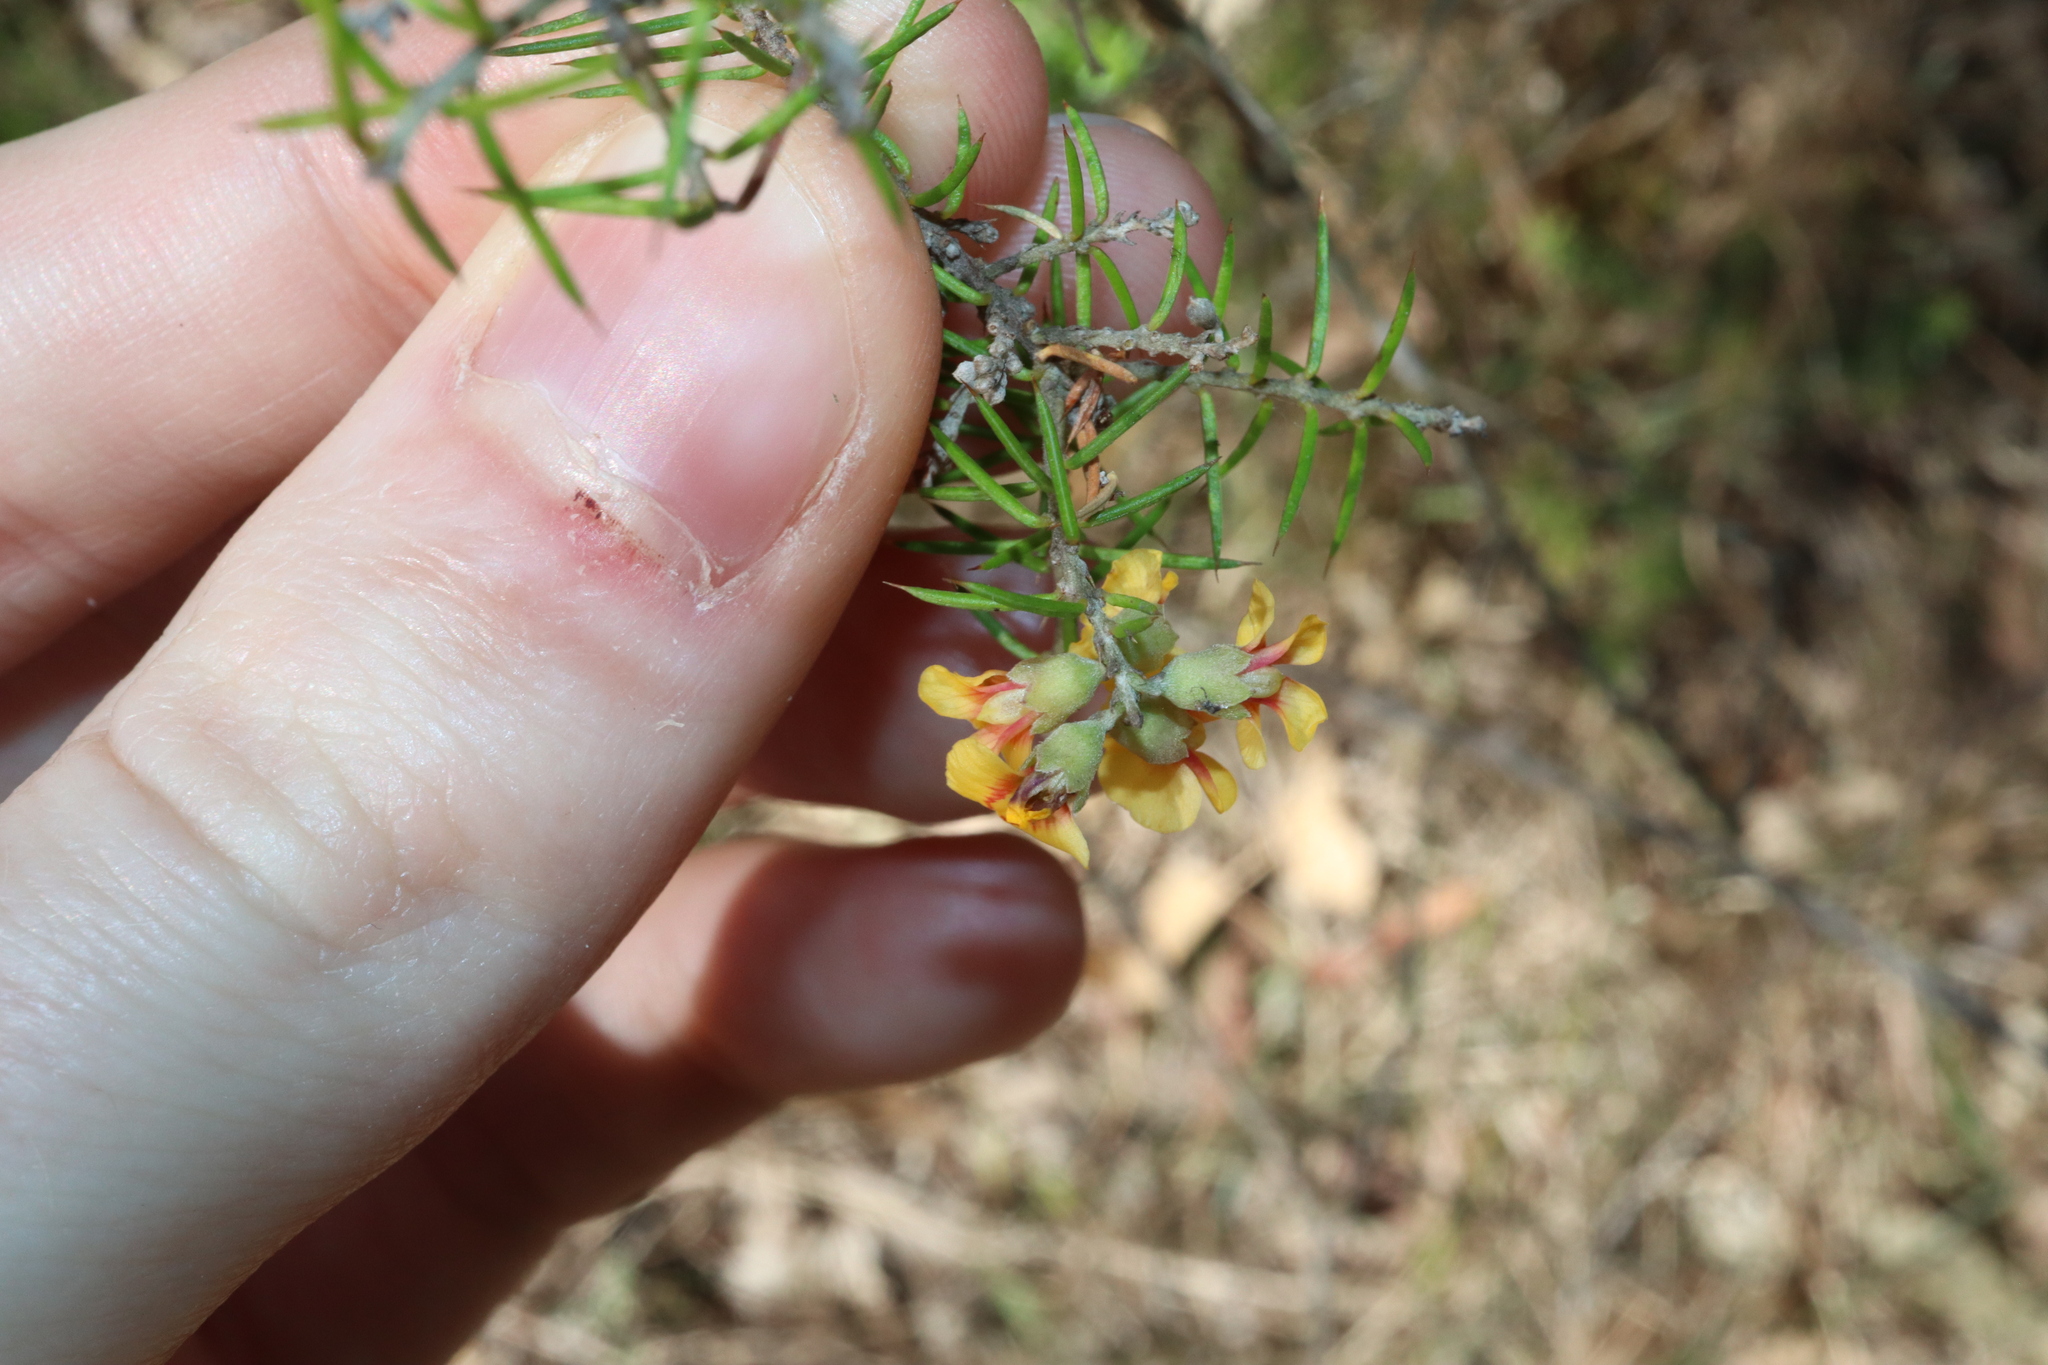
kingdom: Plantae
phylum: Tracheophyta
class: Magnoliopsida
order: Fabales
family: Fabaceae
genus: Dillwynia
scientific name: Dillwynia sieberi
